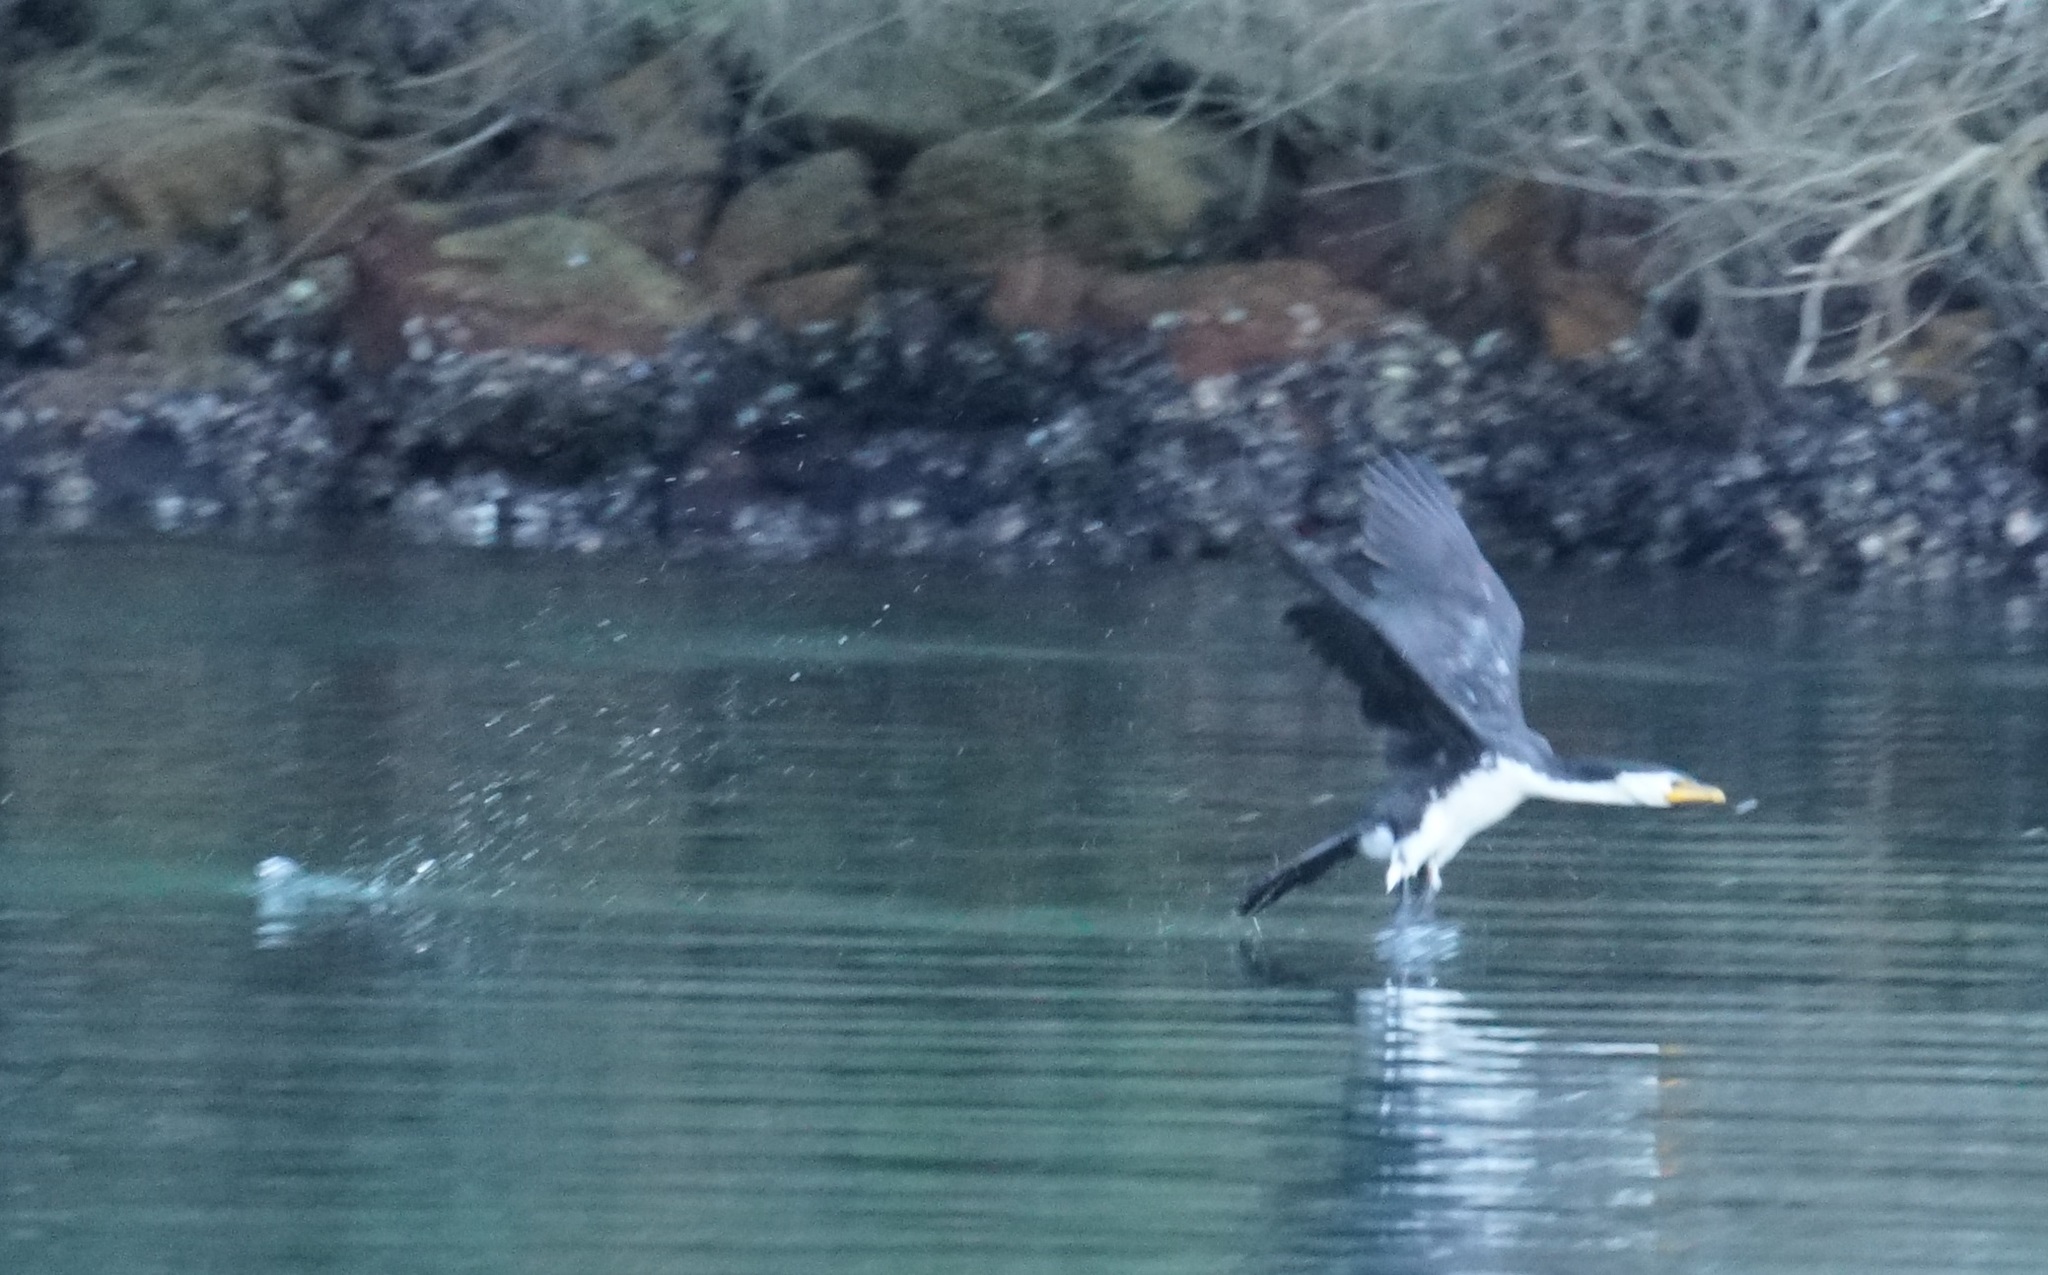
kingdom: Animalia
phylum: Chordata
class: Aves
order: Suliformes
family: Phalacrocoracidae
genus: Microcarbo
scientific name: Microcarbo melanoleucos
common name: Little pied cormorant
